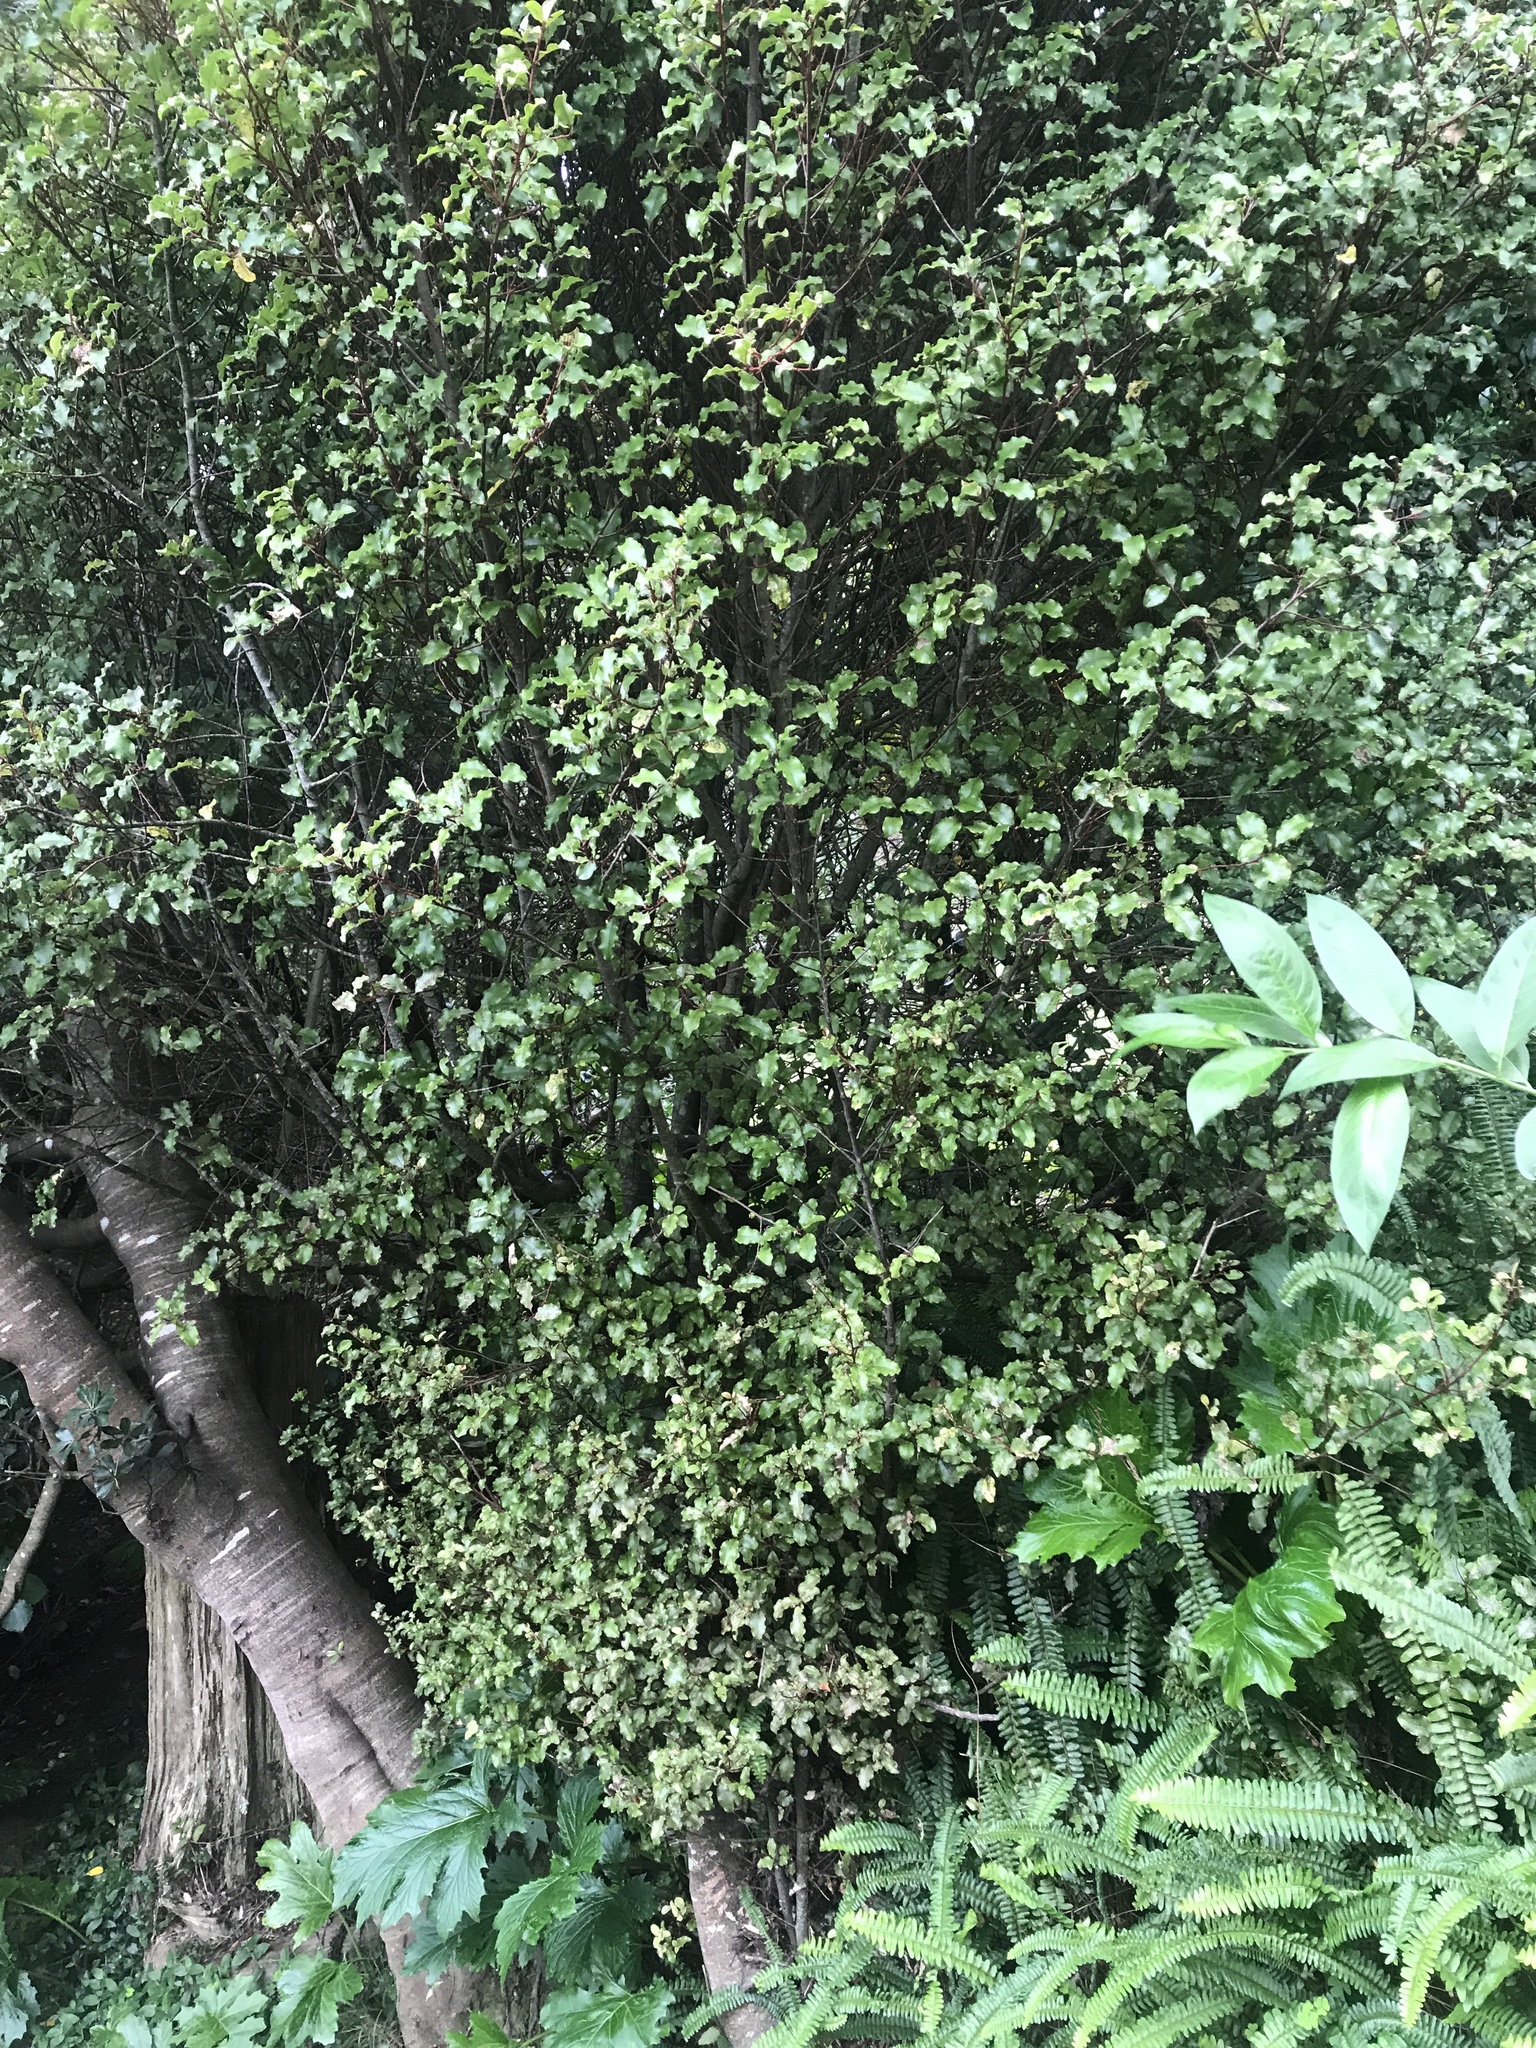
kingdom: Plantae
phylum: Tracheophyta
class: Magnoliopsida
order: Ericales
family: Primulaceae
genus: Myrsine
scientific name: Myrsine australis
